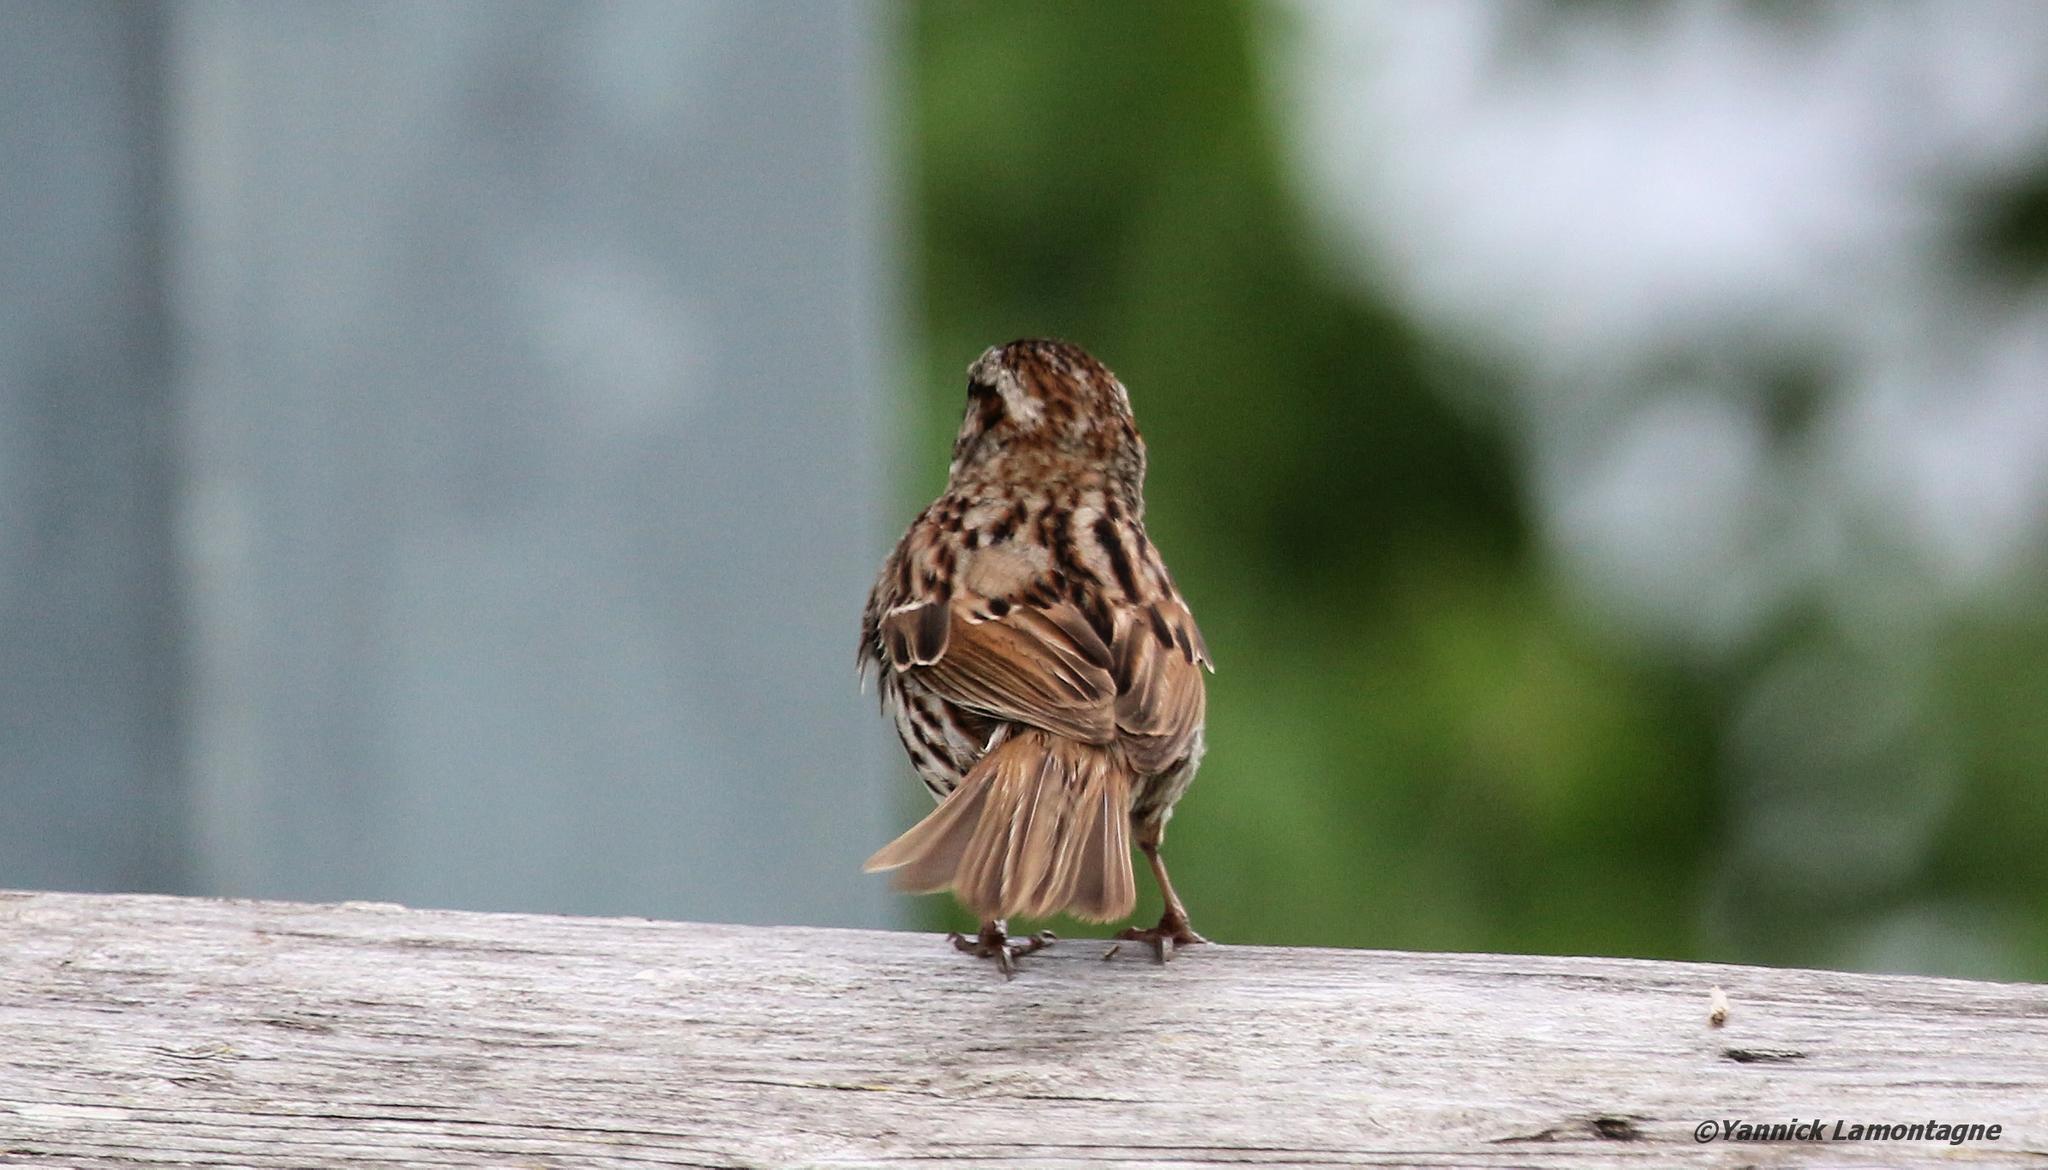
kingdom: Animalia
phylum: Chordata
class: Aves
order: Passeriformes
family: Passerellidae
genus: Melospiza
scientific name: Melospiza melodia
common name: Song sparrow
